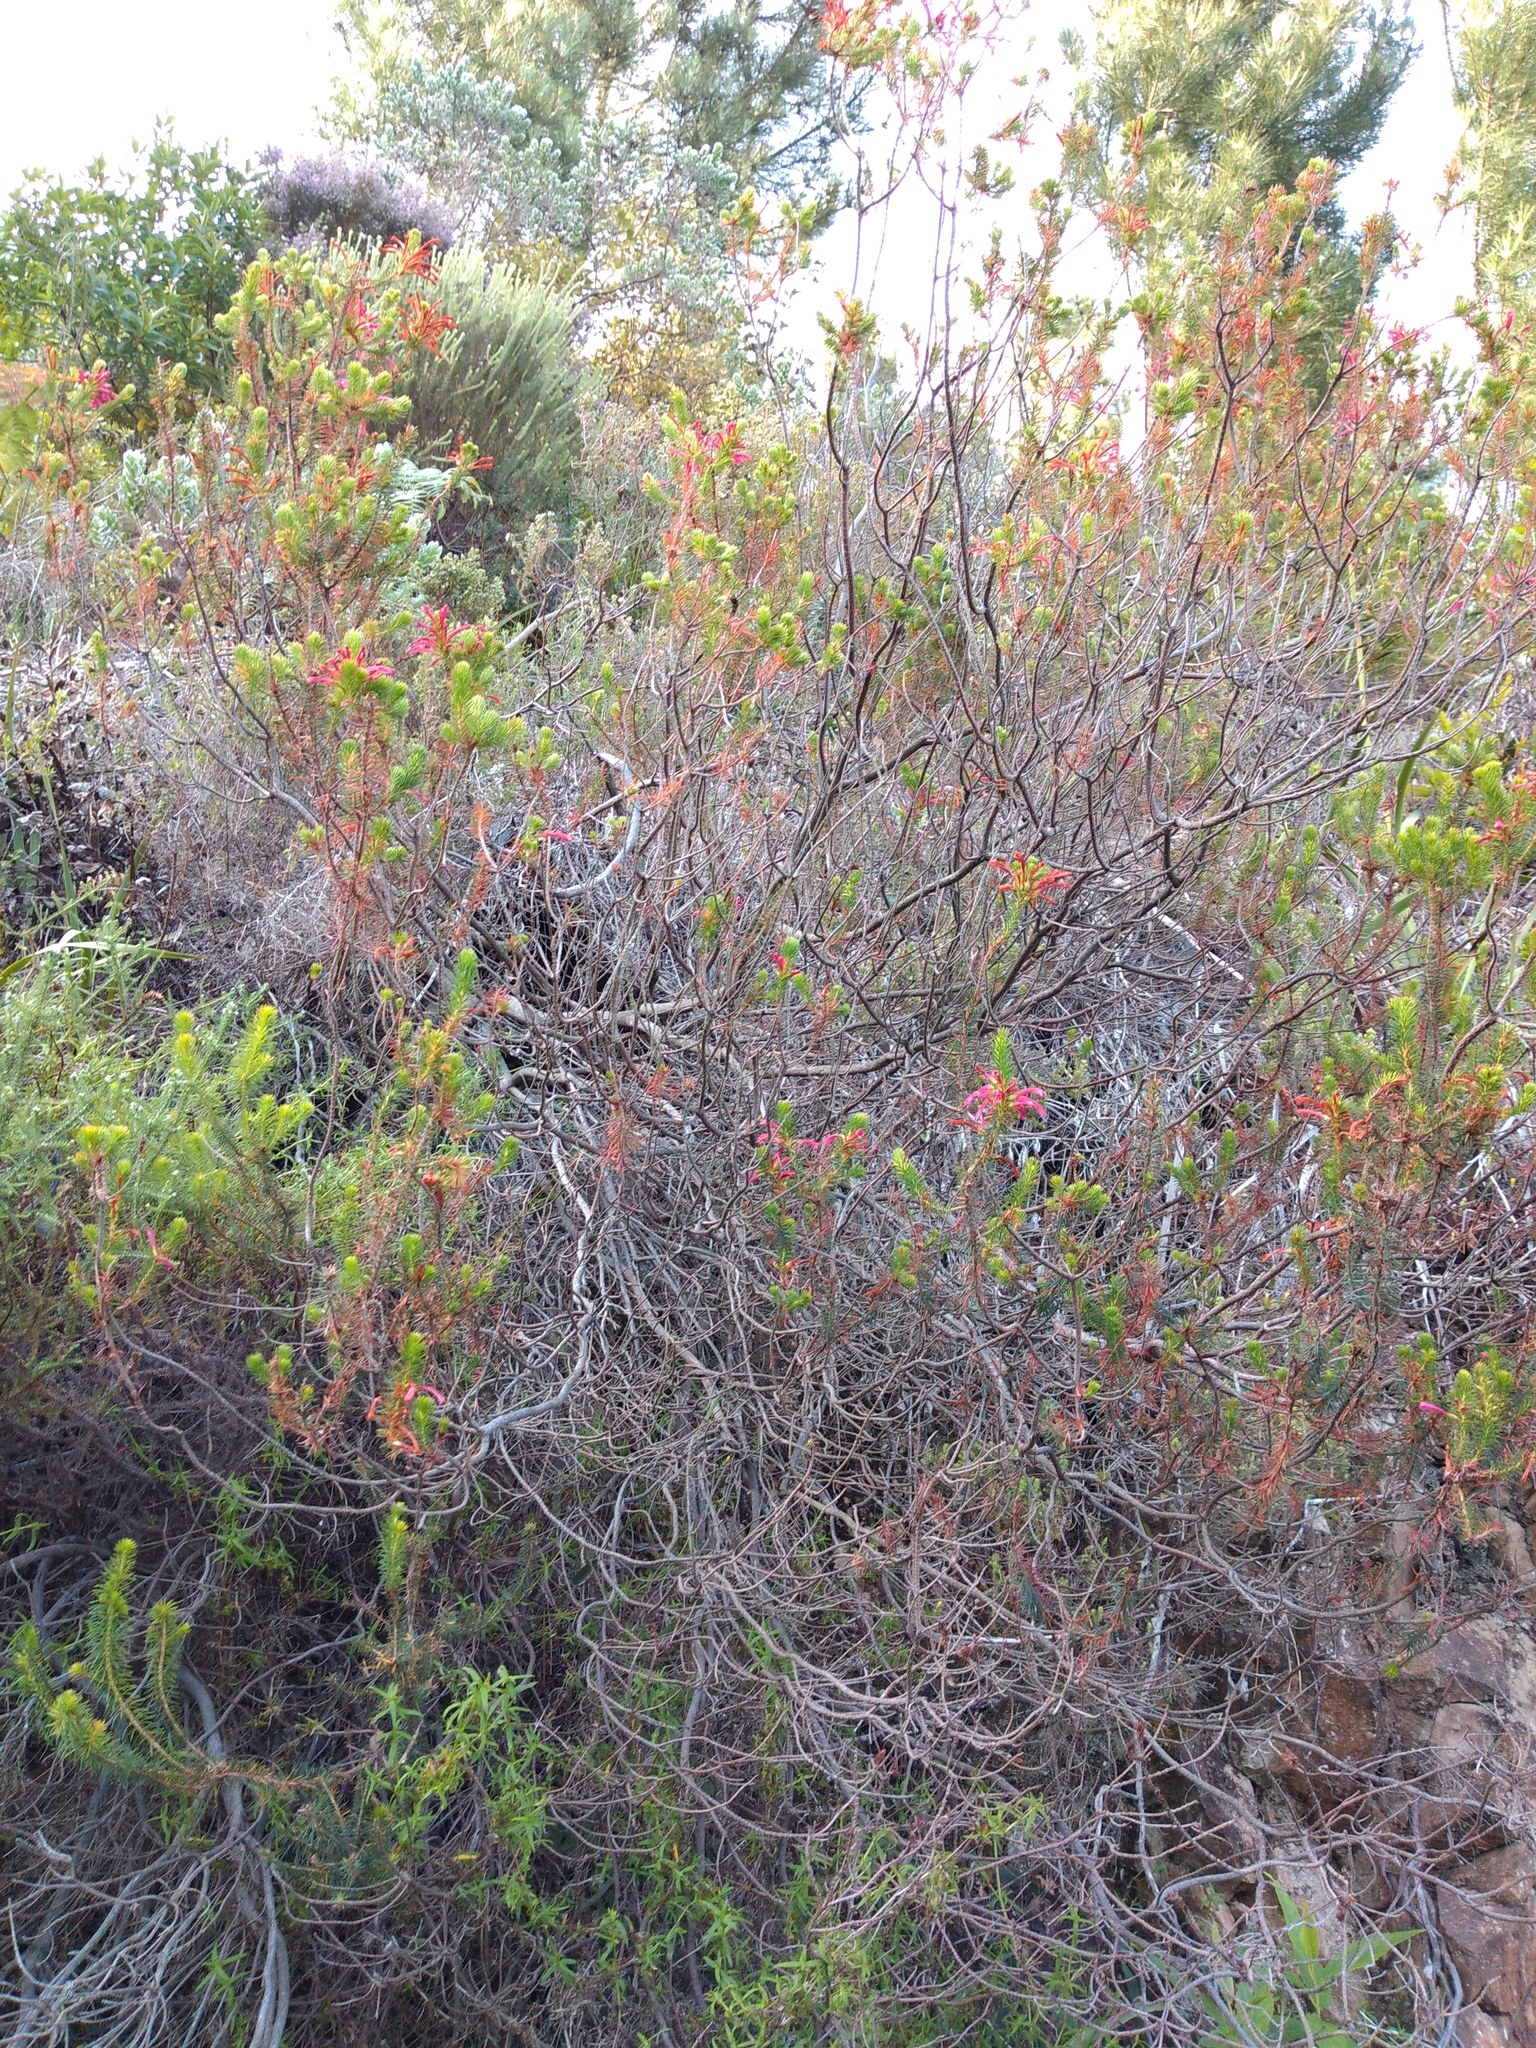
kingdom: Plantae
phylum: Tracheophyta
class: Magnoliopsida
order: Ericales
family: Ericaceae
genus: Erica
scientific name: Erica abietina
